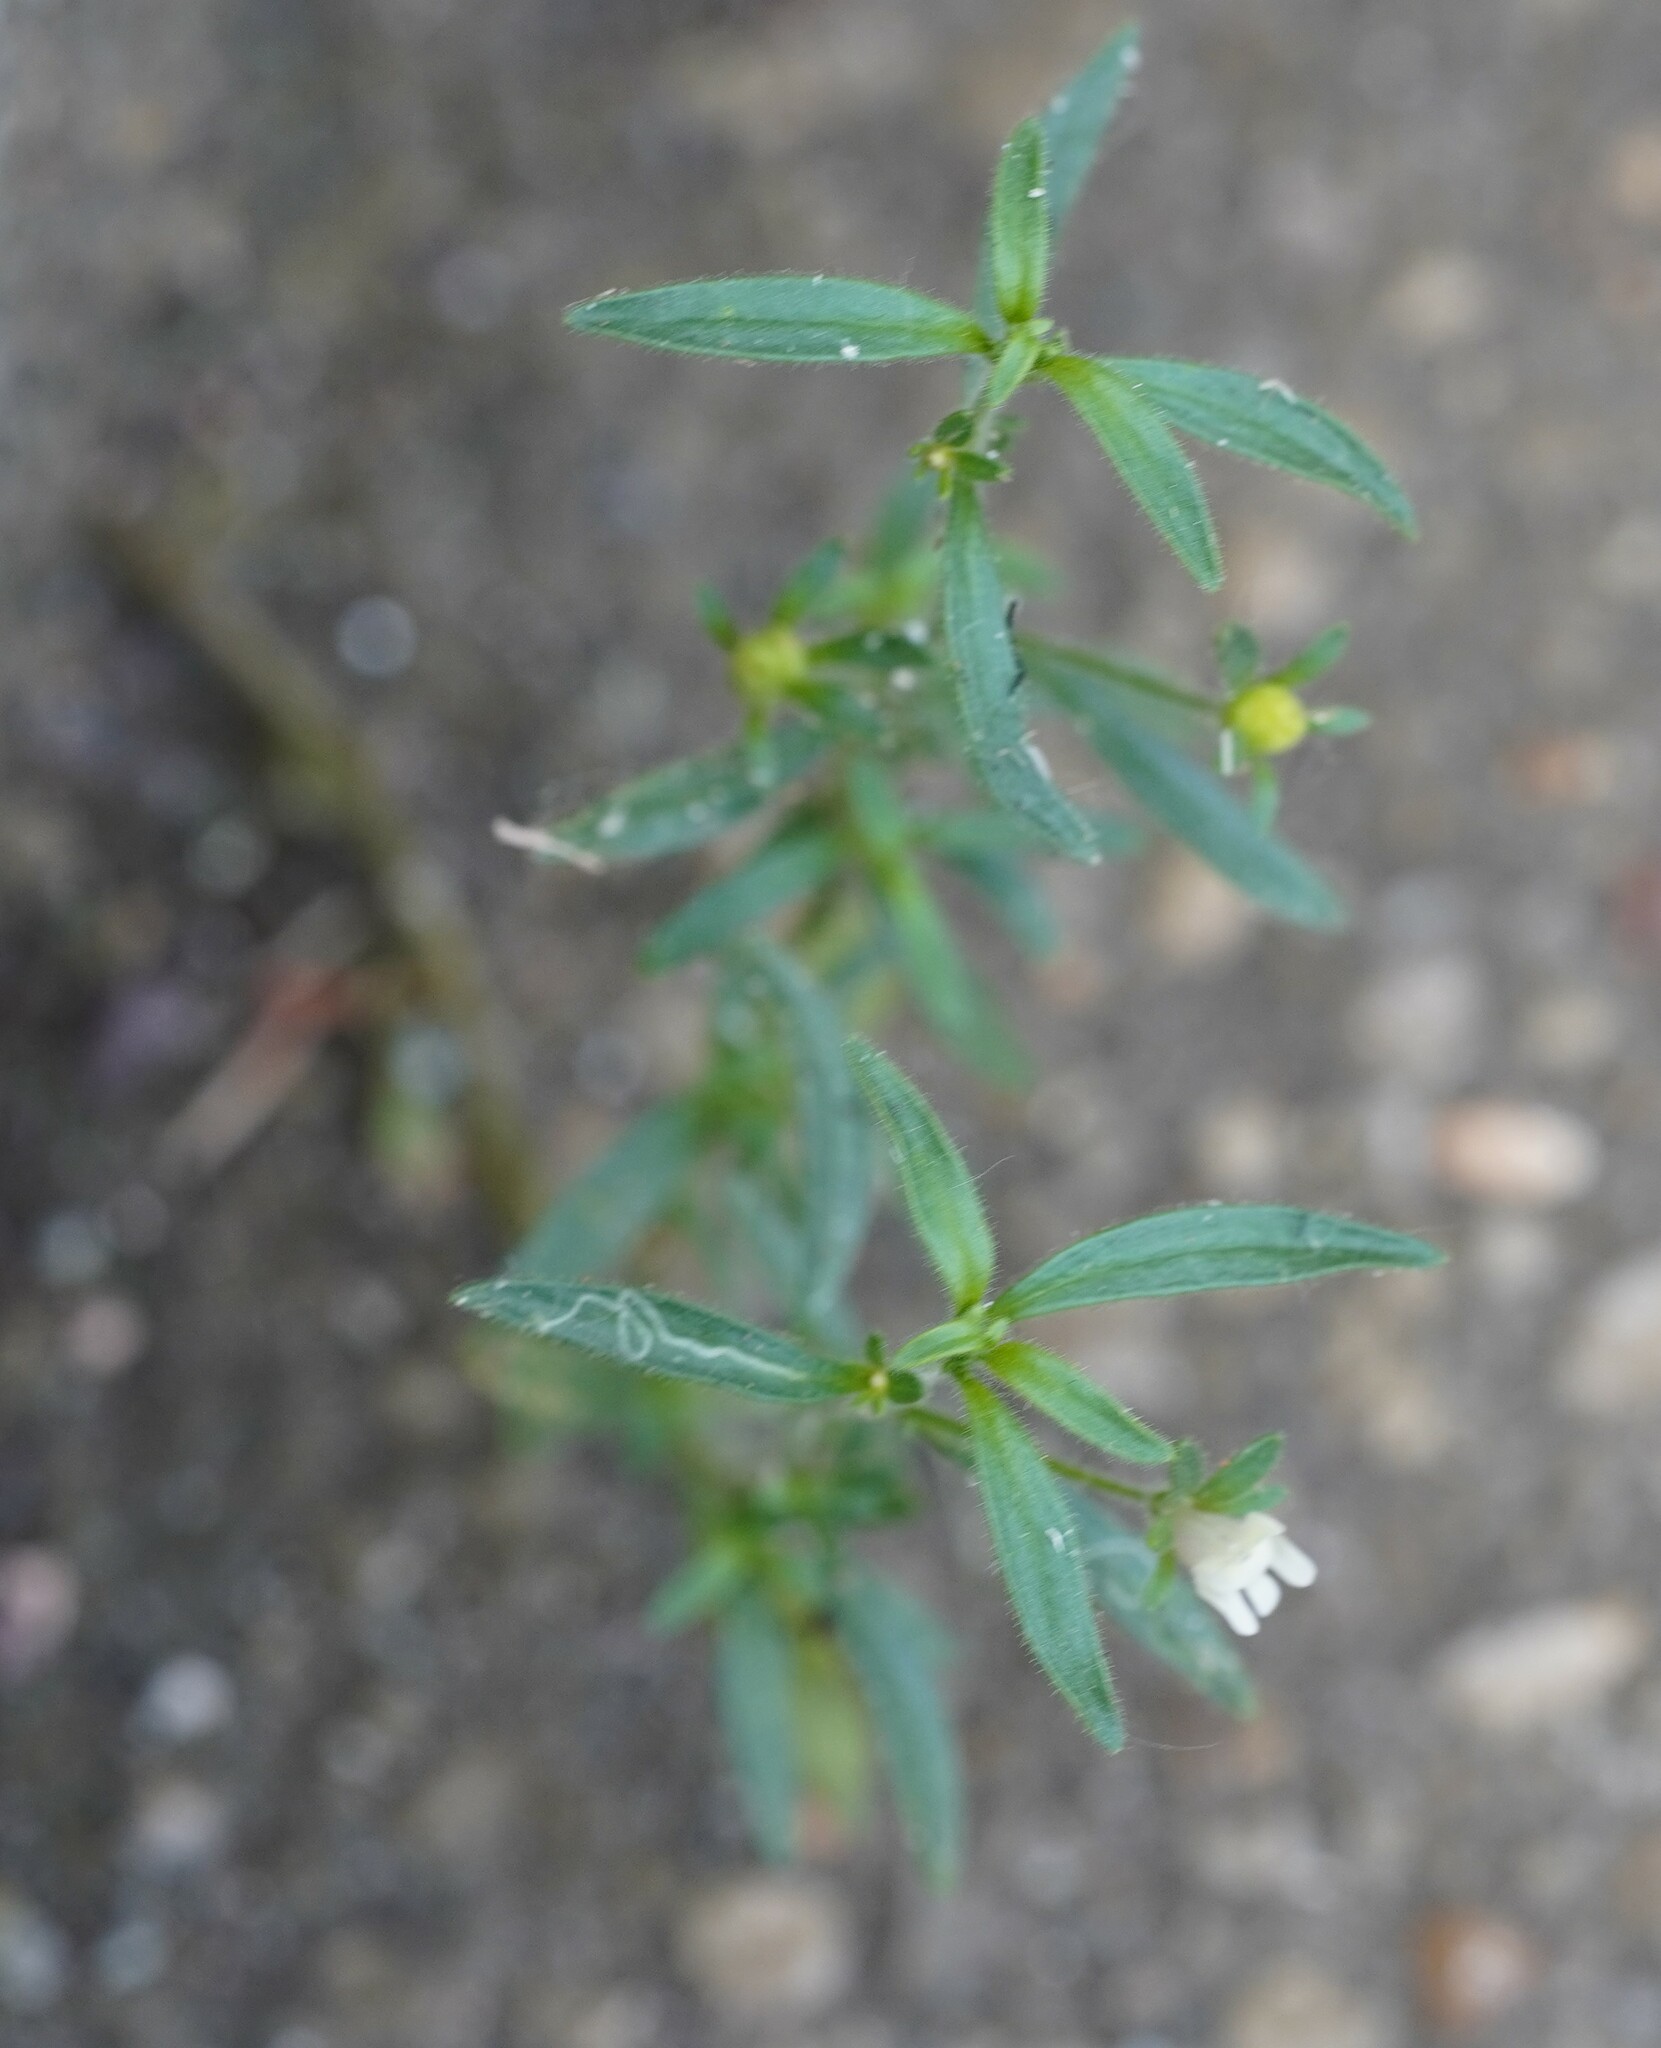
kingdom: Plantae
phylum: Tracheophyta
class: Magnoliopsida
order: Lamiales
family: Plantaginaceae
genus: Chaenorhinum
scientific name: Chaenorhinum minus
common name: Dwarf snapdragon
